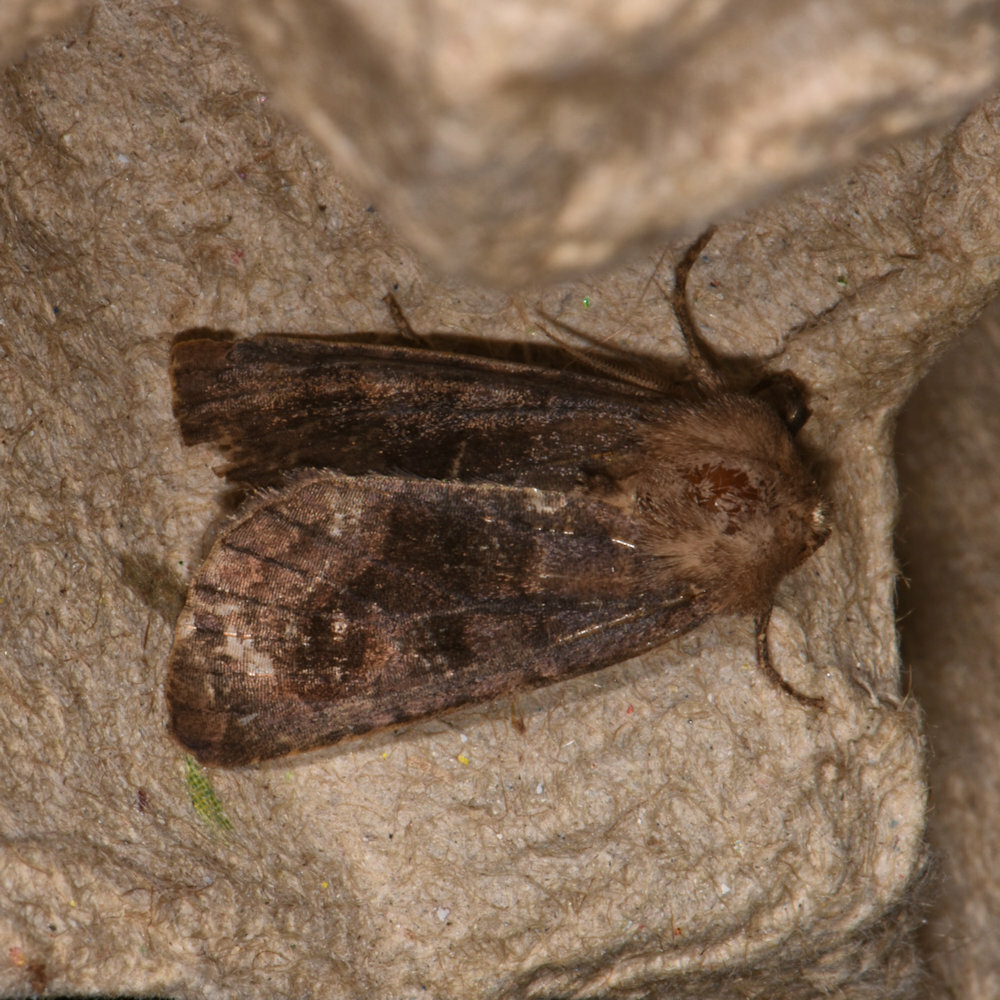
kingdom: Animalia
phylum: Arthropoda
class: Insecta
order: Lepidoptera
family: Noctuidae
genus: Nephelodes
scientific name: Nephelodes minians
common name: Bronzed cutworm
